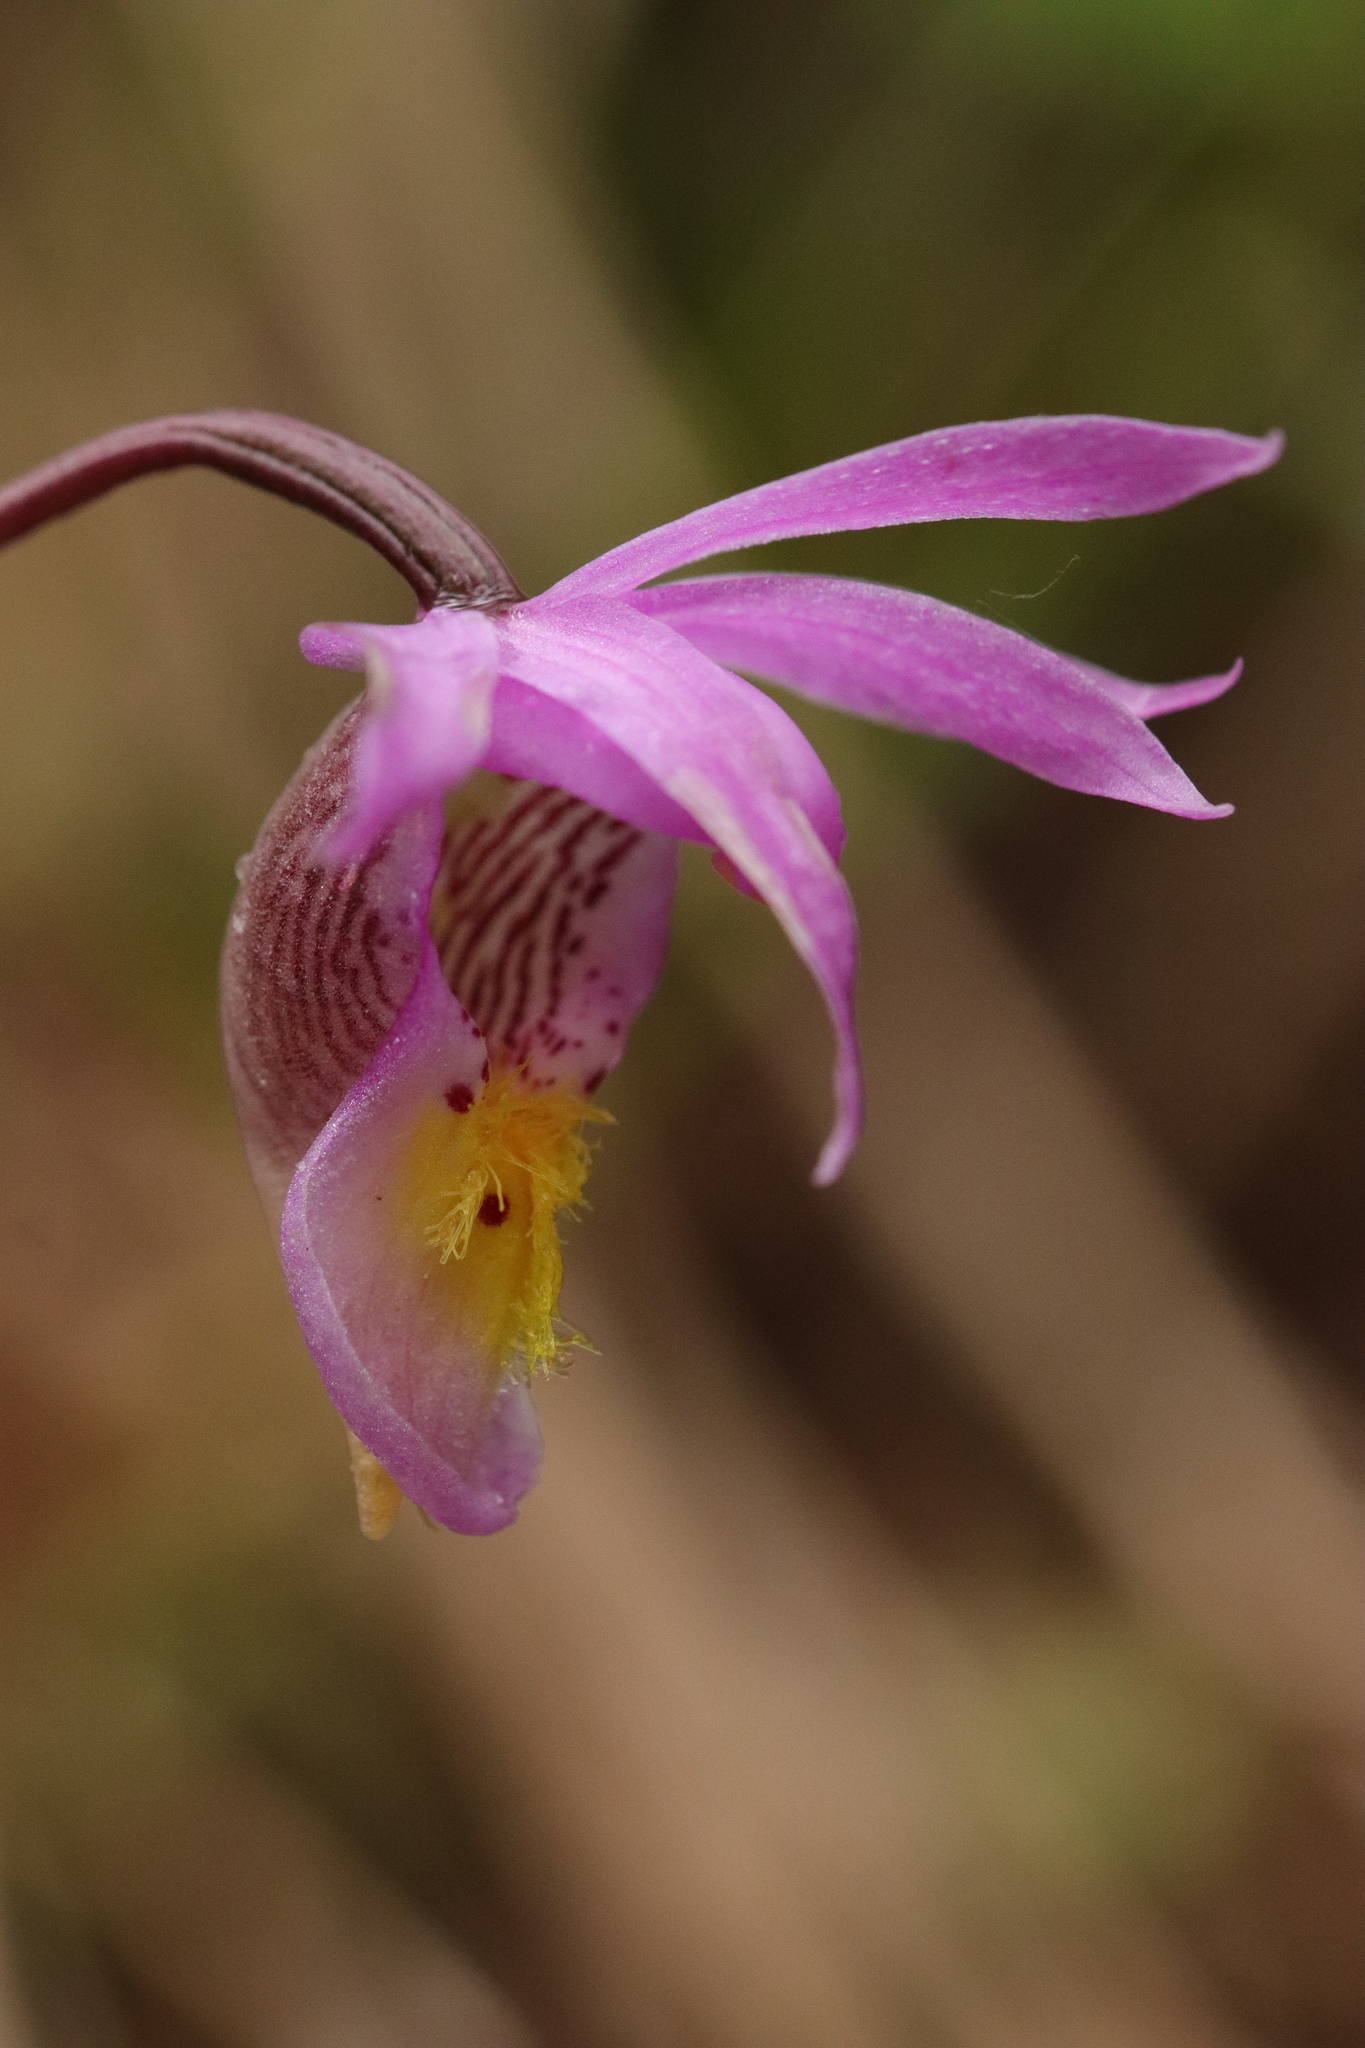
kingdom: Plantae
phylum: Tracheophyta
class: Liliopsida
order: Asparagales
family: Orchidaceae
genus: Calypso
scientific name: Calypso bulbosa
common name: Calypso
